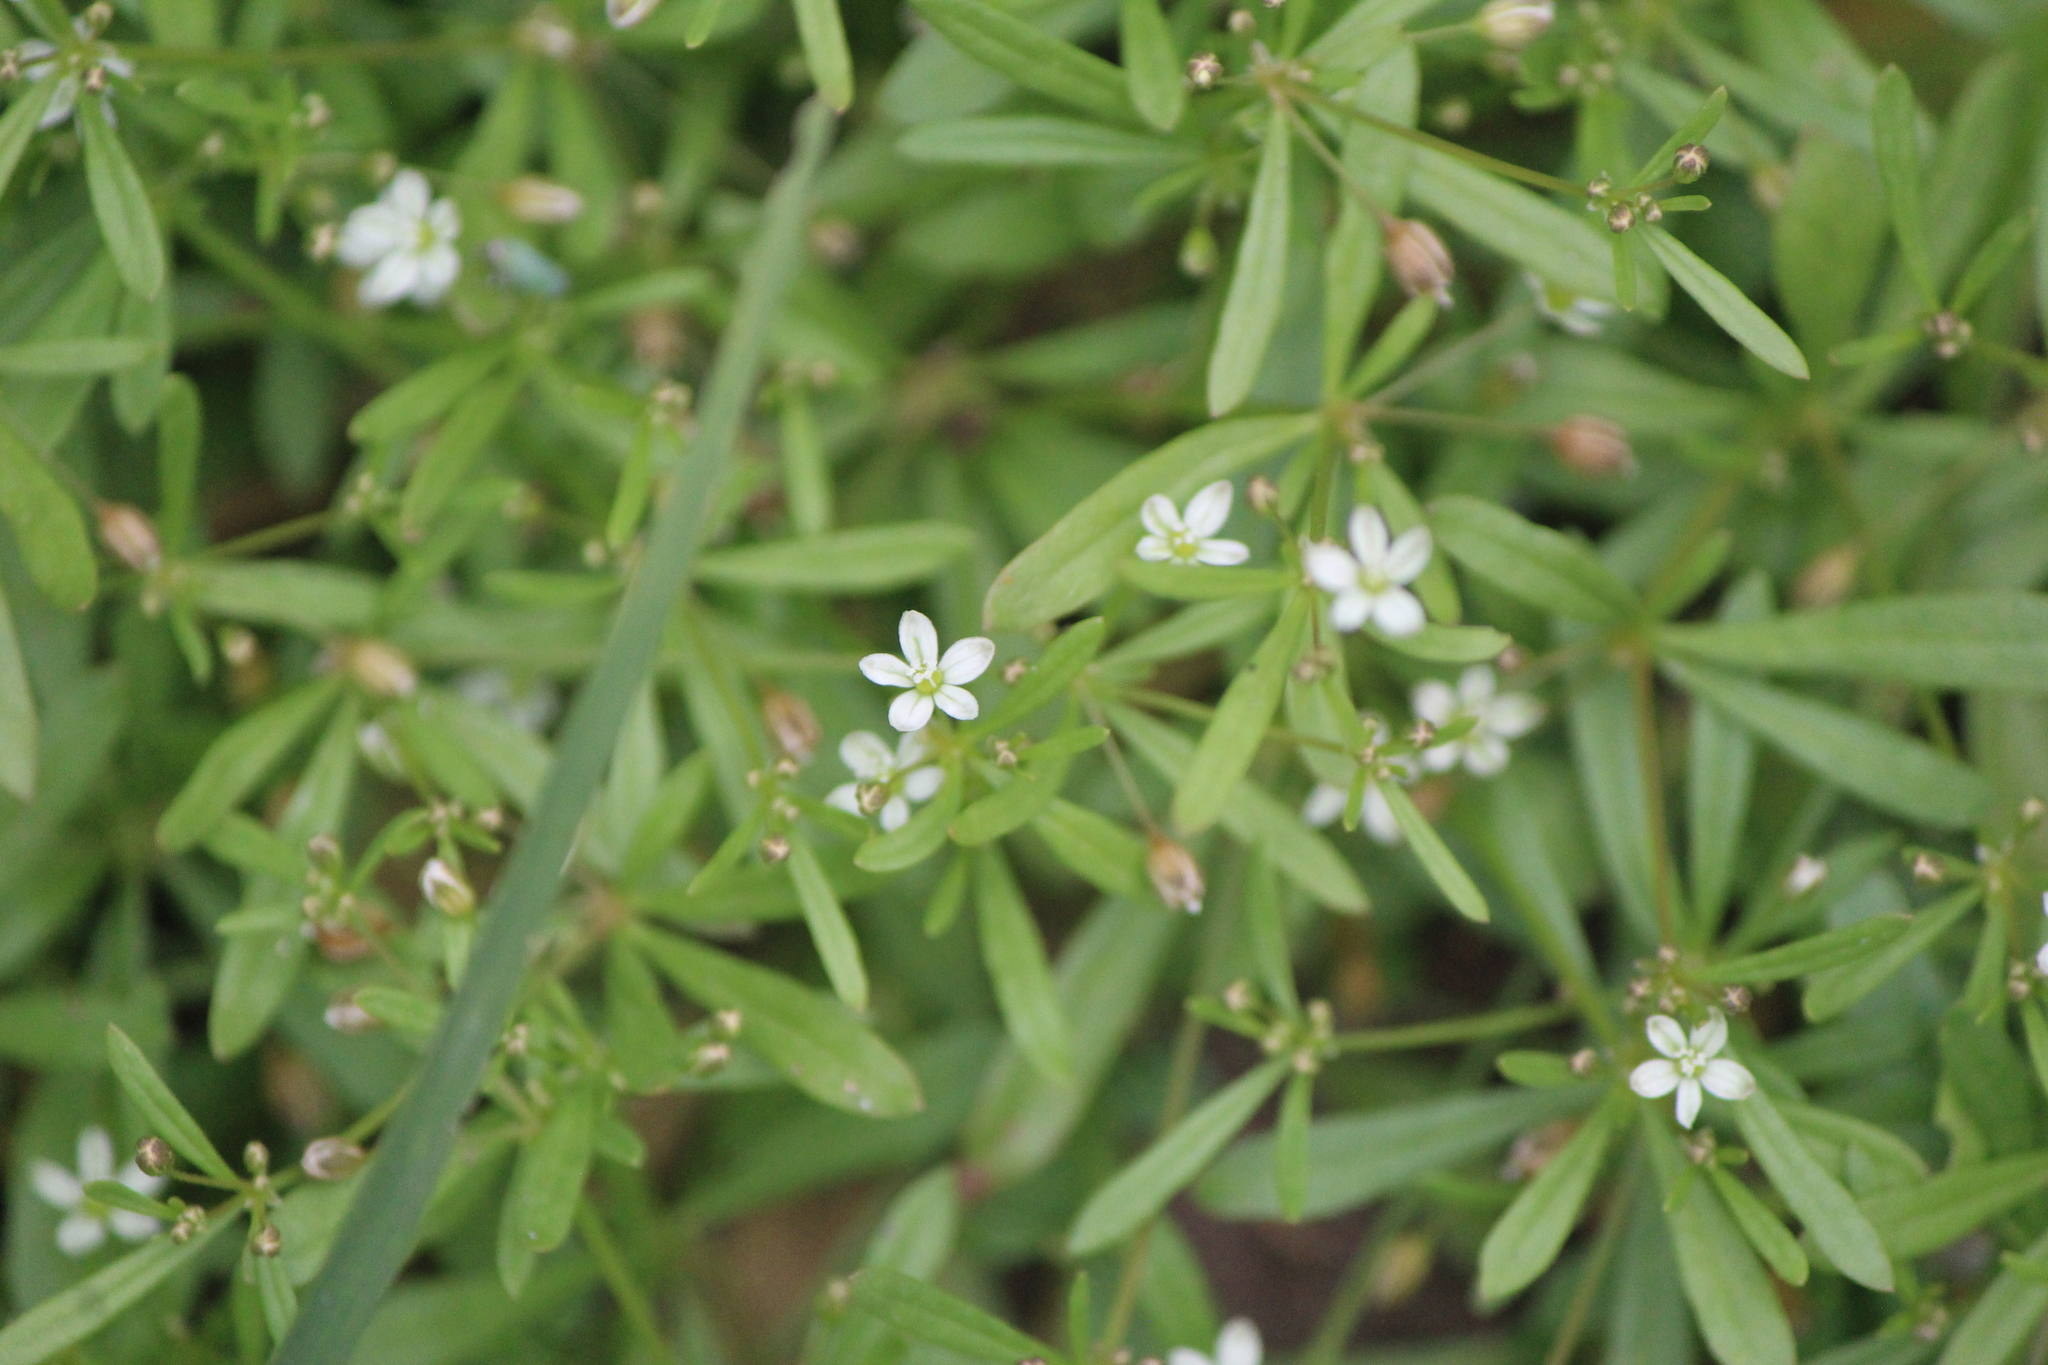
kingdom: Plantae
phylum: Tracheophyta
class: Magnoliopsida
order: Caryophyllales
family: Molluginaceae
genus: Mollugo
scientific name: Mollugo verticillata
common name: Green carpetweed
